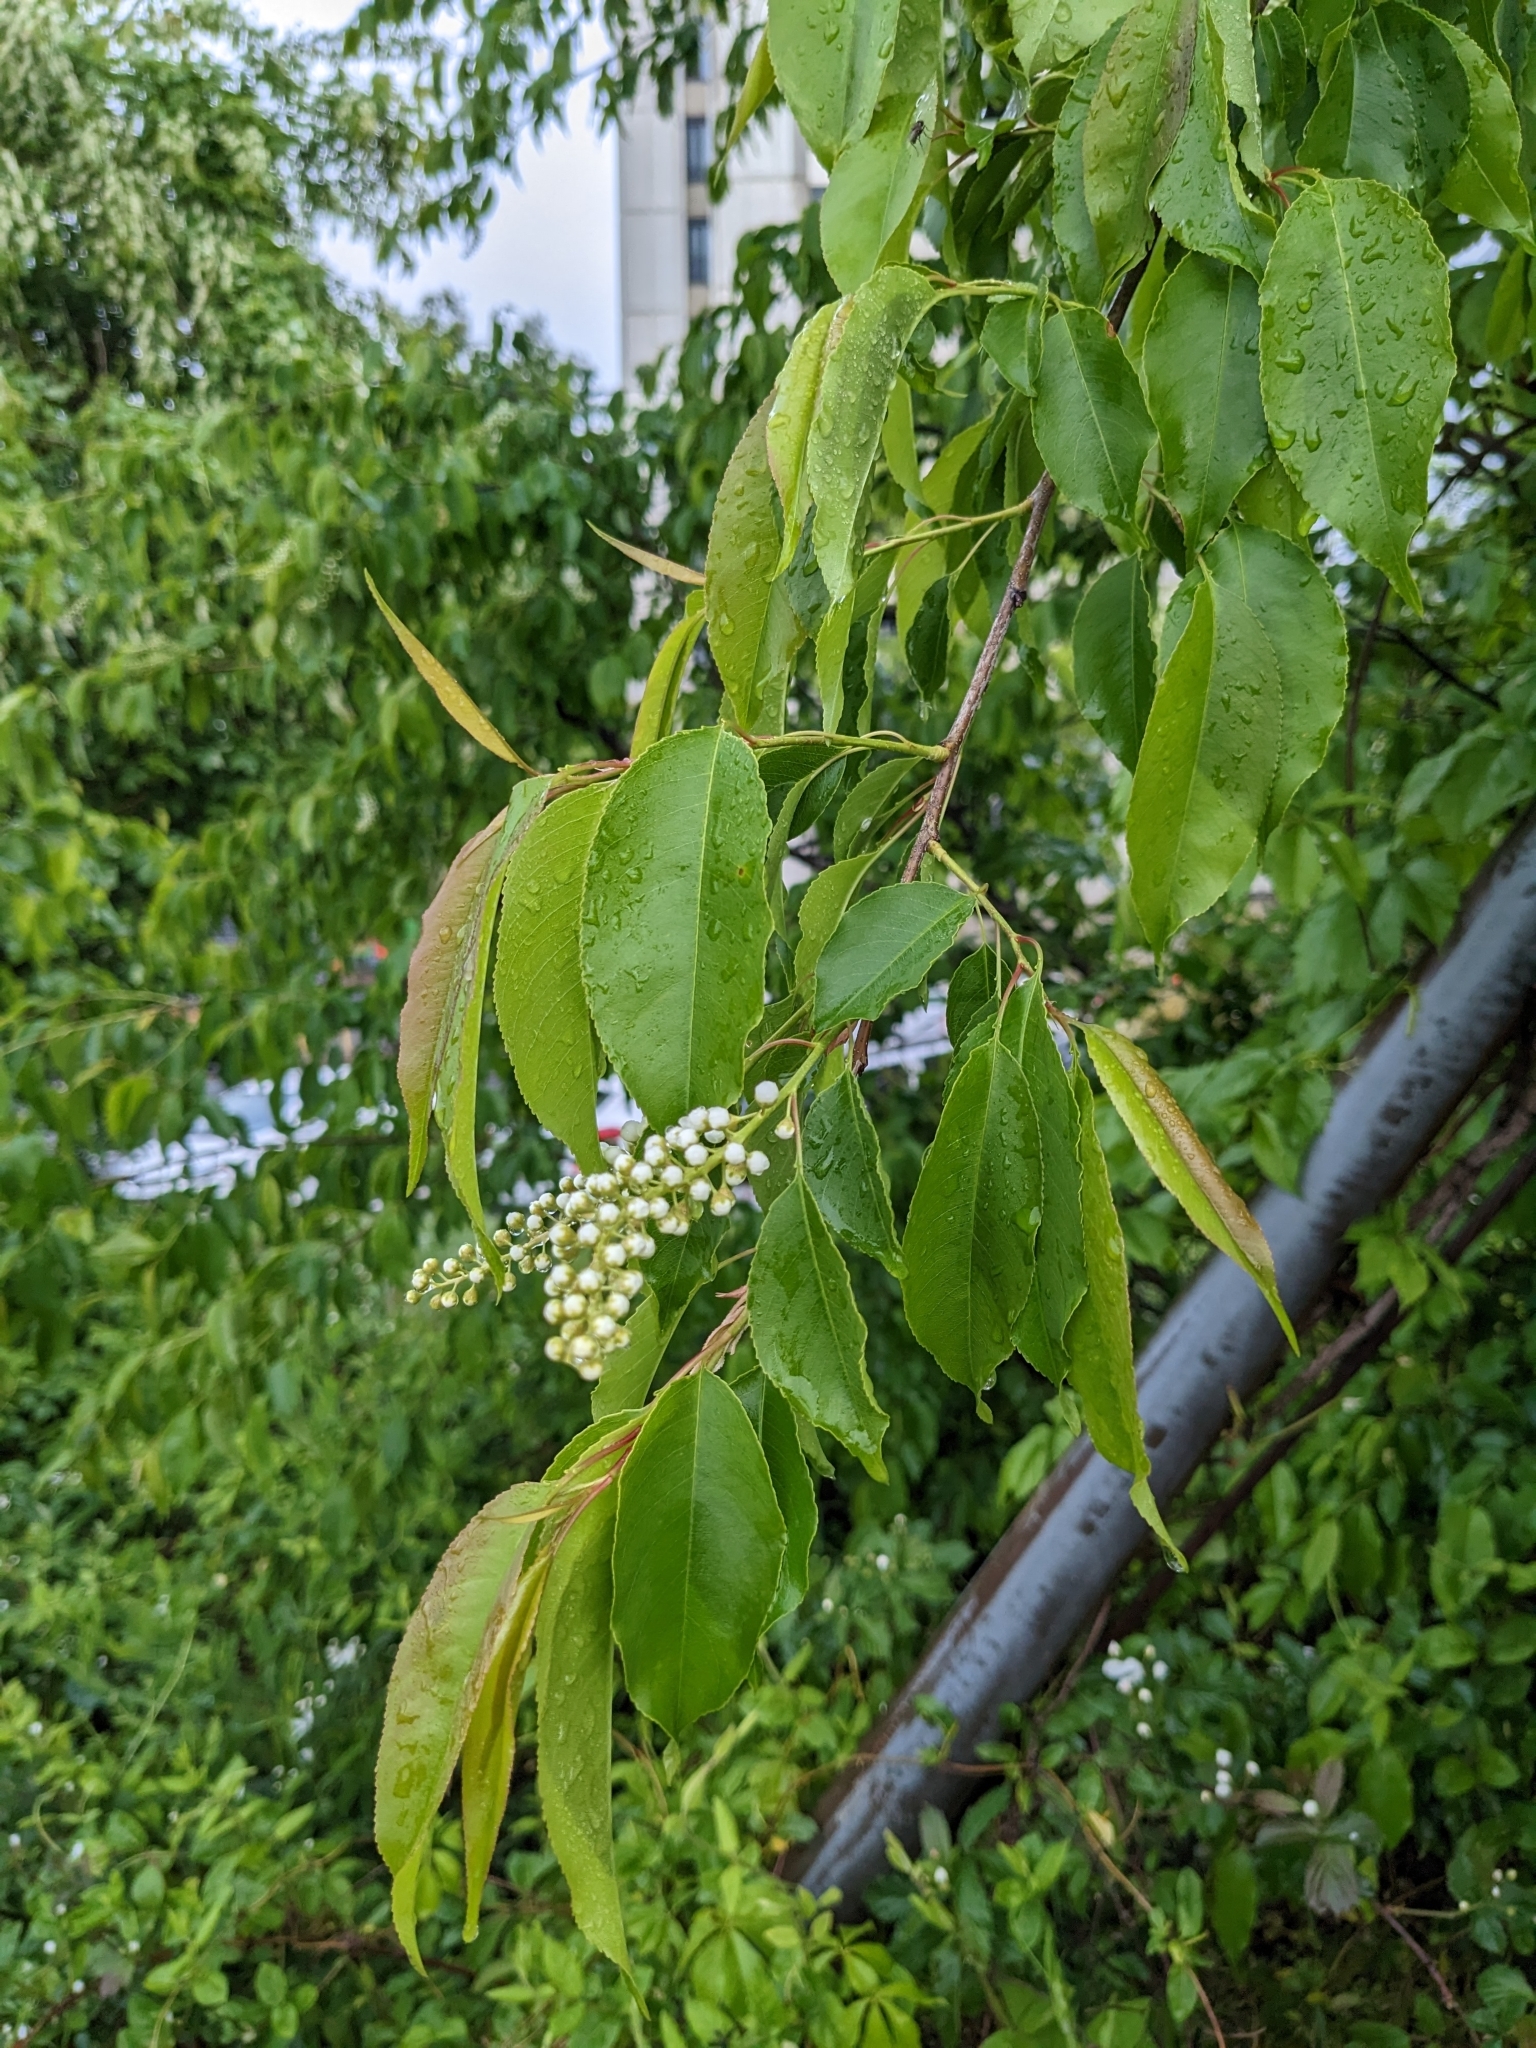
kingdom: Plantae
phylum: Tracheophyta
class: Magnoliopsida
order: Rosales
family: Rosaceae
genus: Prunus
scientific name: Prunus serotina
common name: Black cherry
